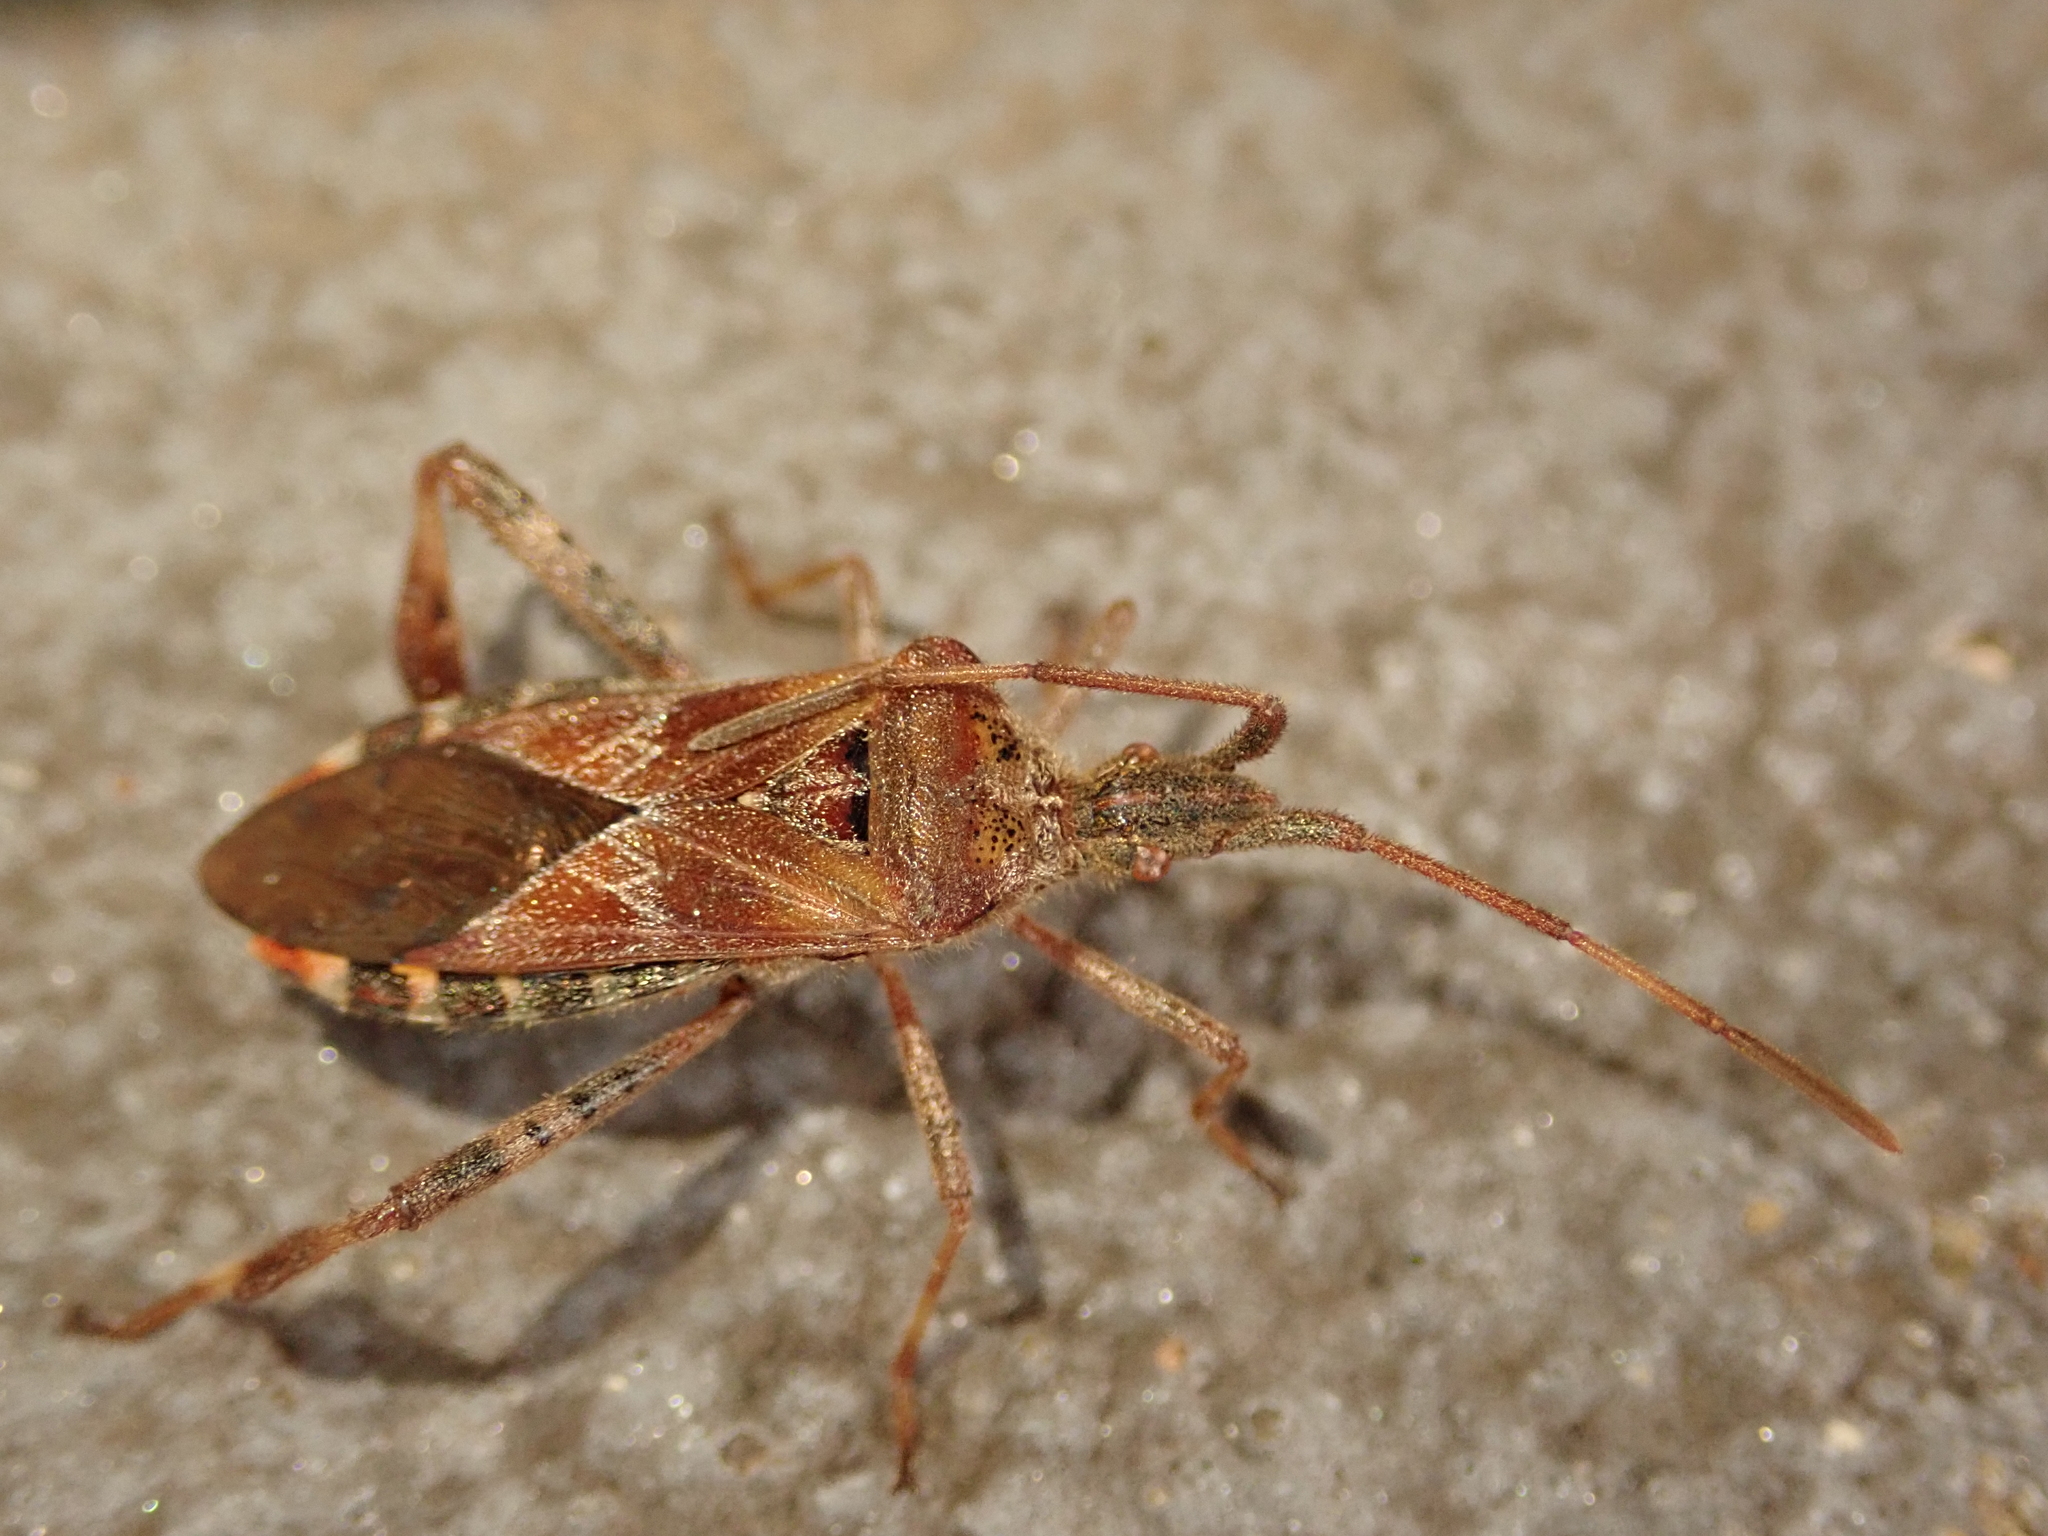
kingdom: Animalia
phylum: Arthropoda
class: Insecta
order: Hemiptera
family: Coreidae
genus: Leptoglossus
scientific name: Leptoglossus occidentalis
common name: Western conifer-seed bug
